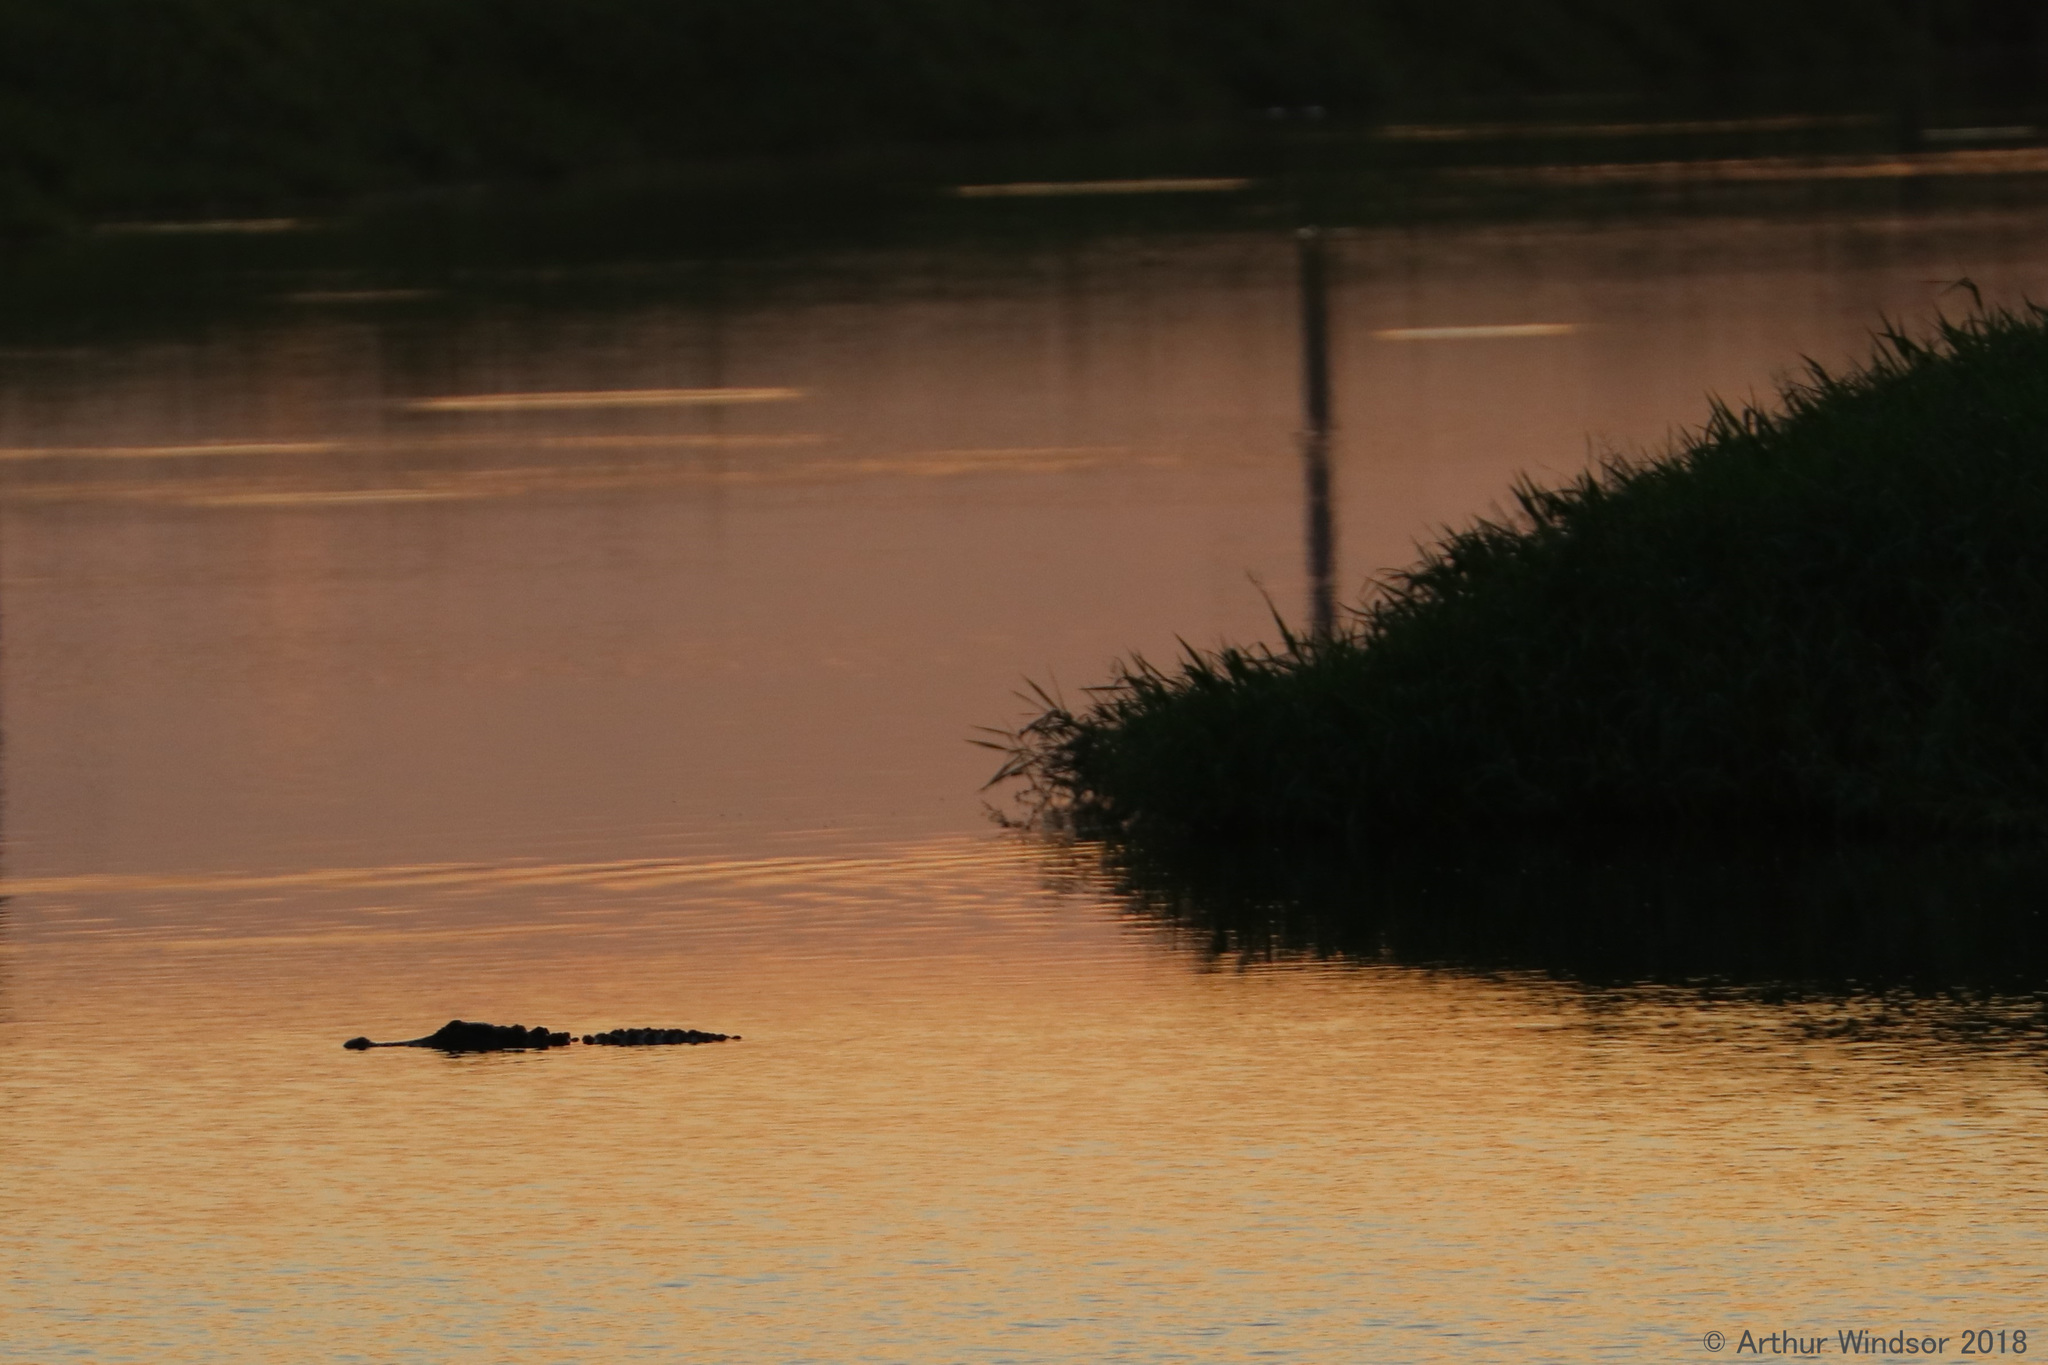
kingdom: Animalia
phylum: Chordata
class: Crocodylia
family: Alligatoridae
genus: Alligator
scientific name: Alligator mississippiensis
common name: American alligator
